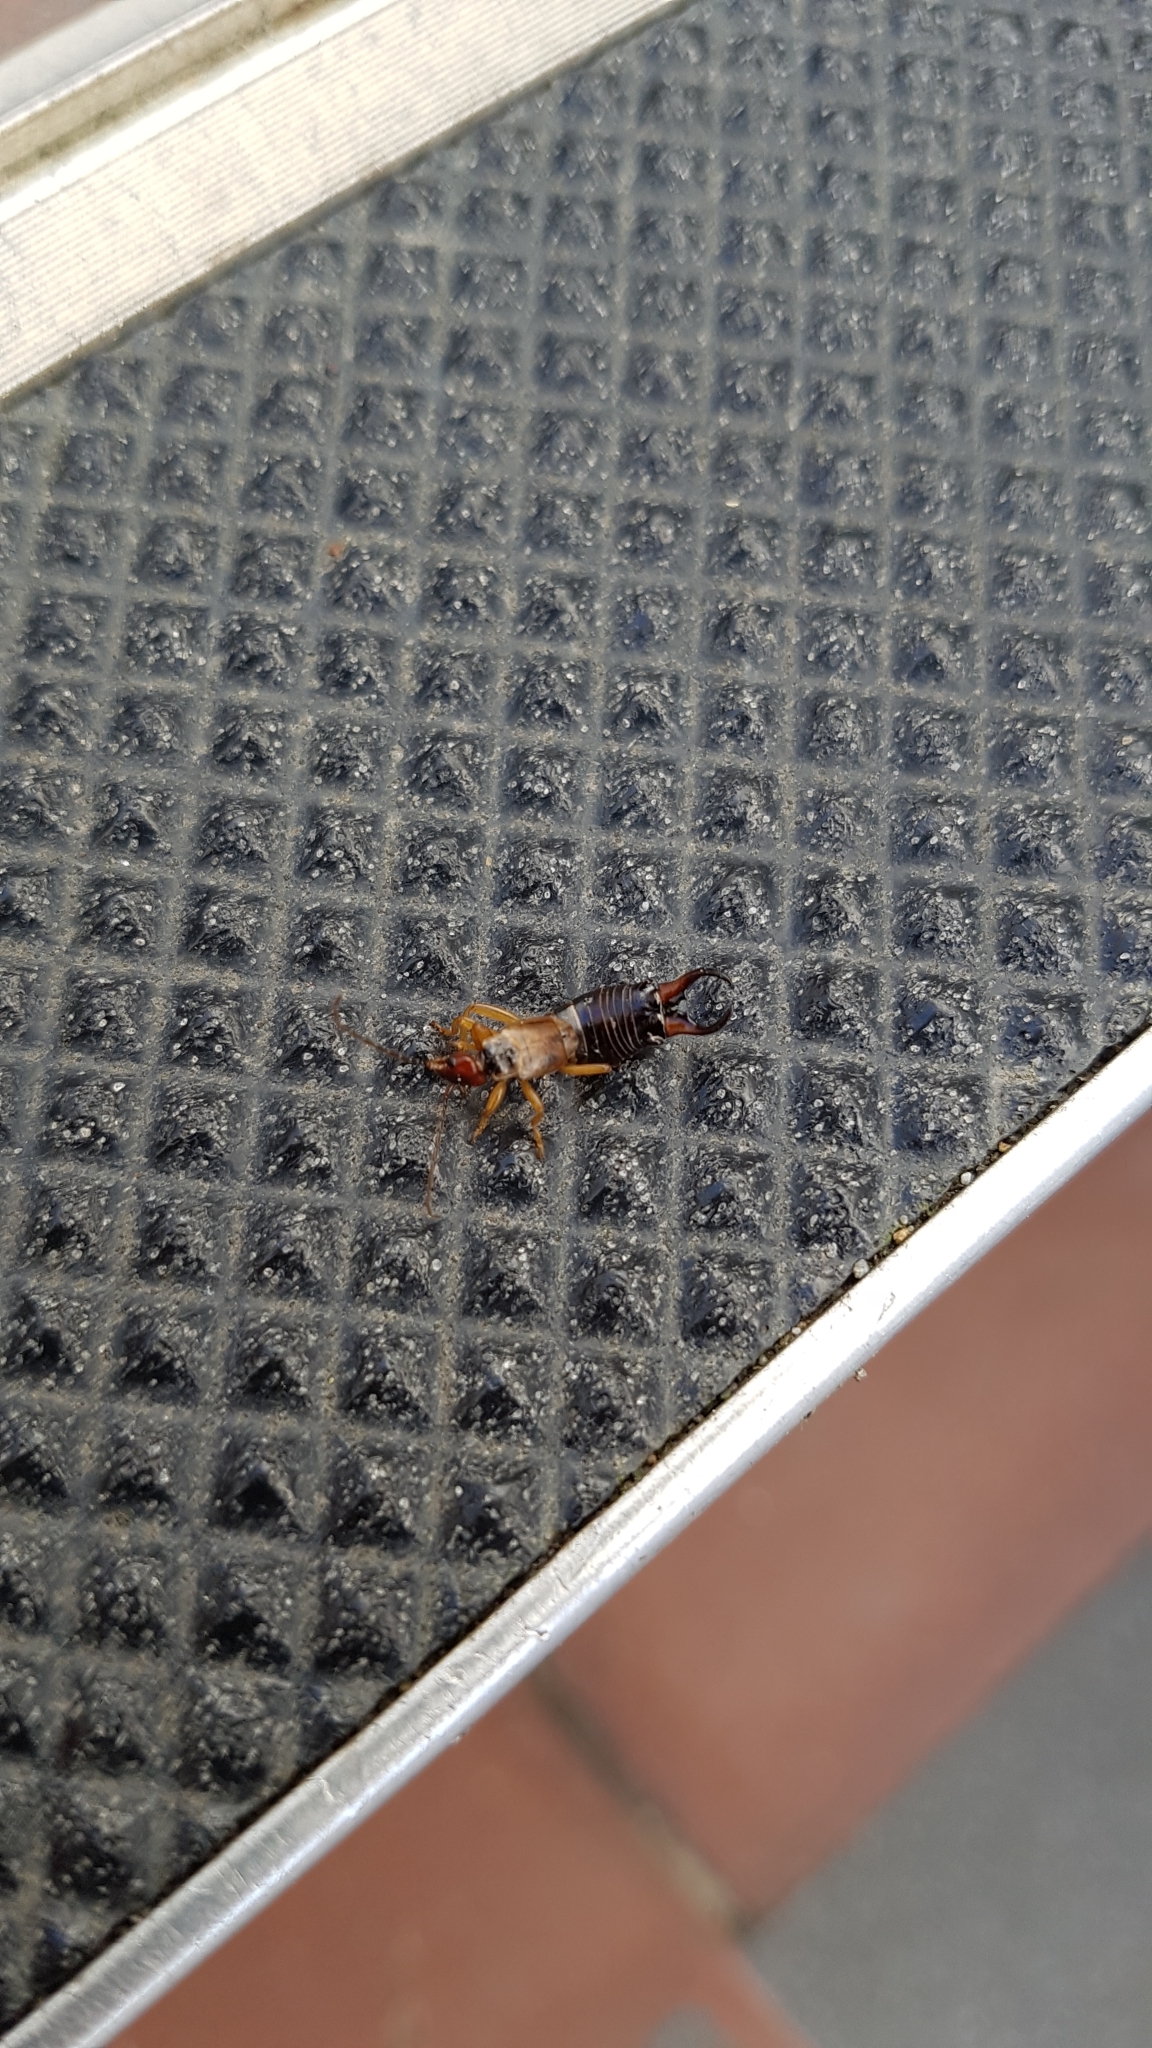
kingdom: Animalia
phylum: Arthropoda
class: Insecta
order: Dermaptera
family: Forficulidae
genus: Forficula
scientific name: Forficula dentata
